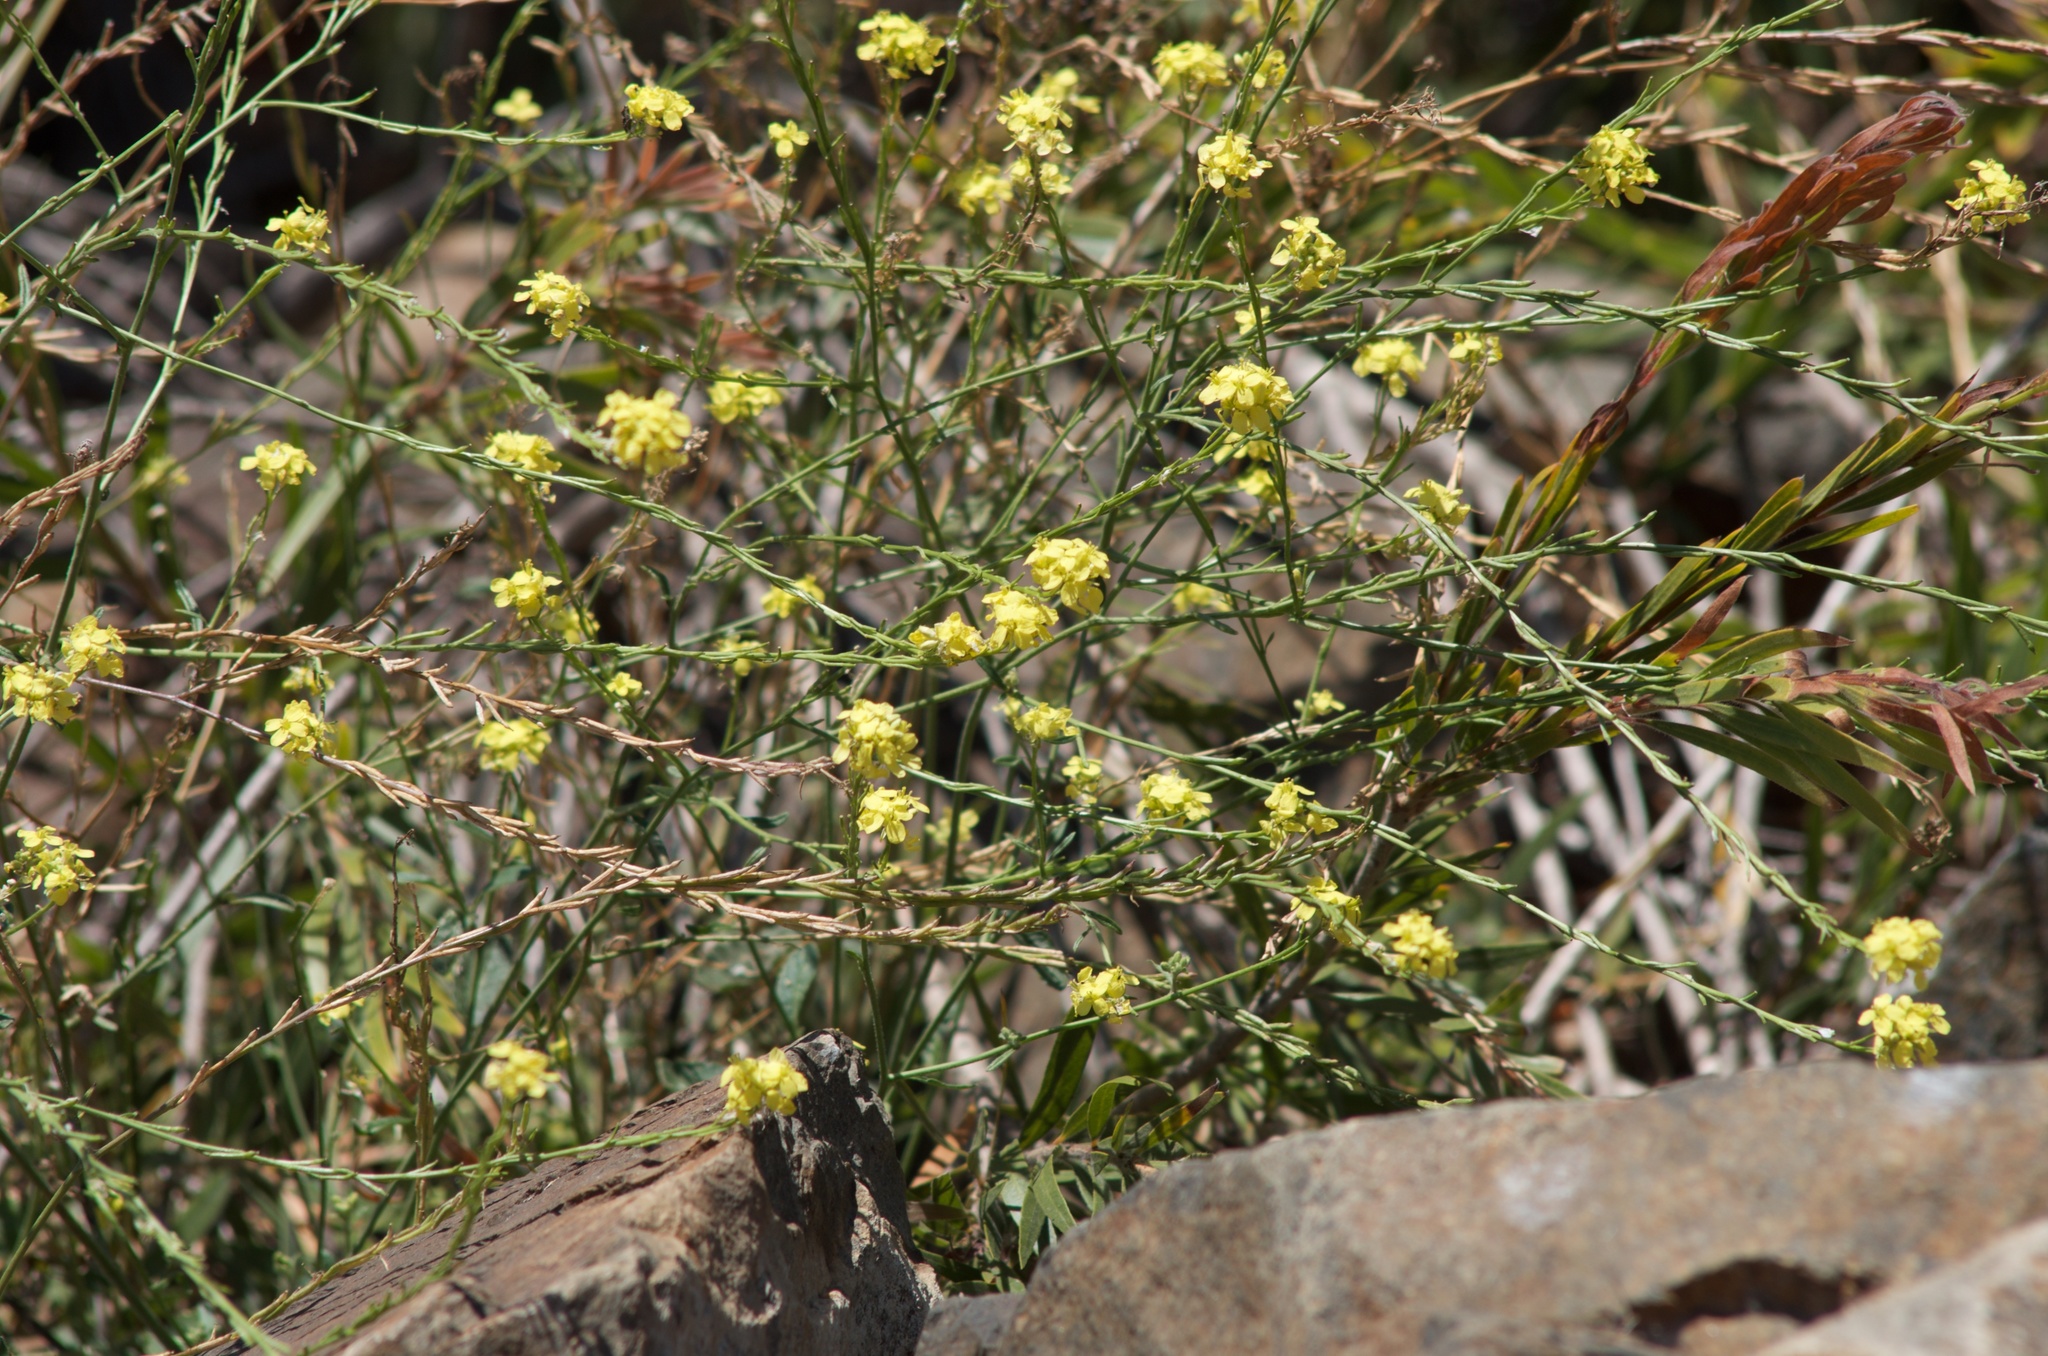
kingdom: Plantae
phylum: Tracheophyta
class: Magnoliopsida
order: Brassicales
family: Brassicaceae
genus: Hirschfeldia
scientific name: Hirschfeldia incana
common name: Hoary mustard
